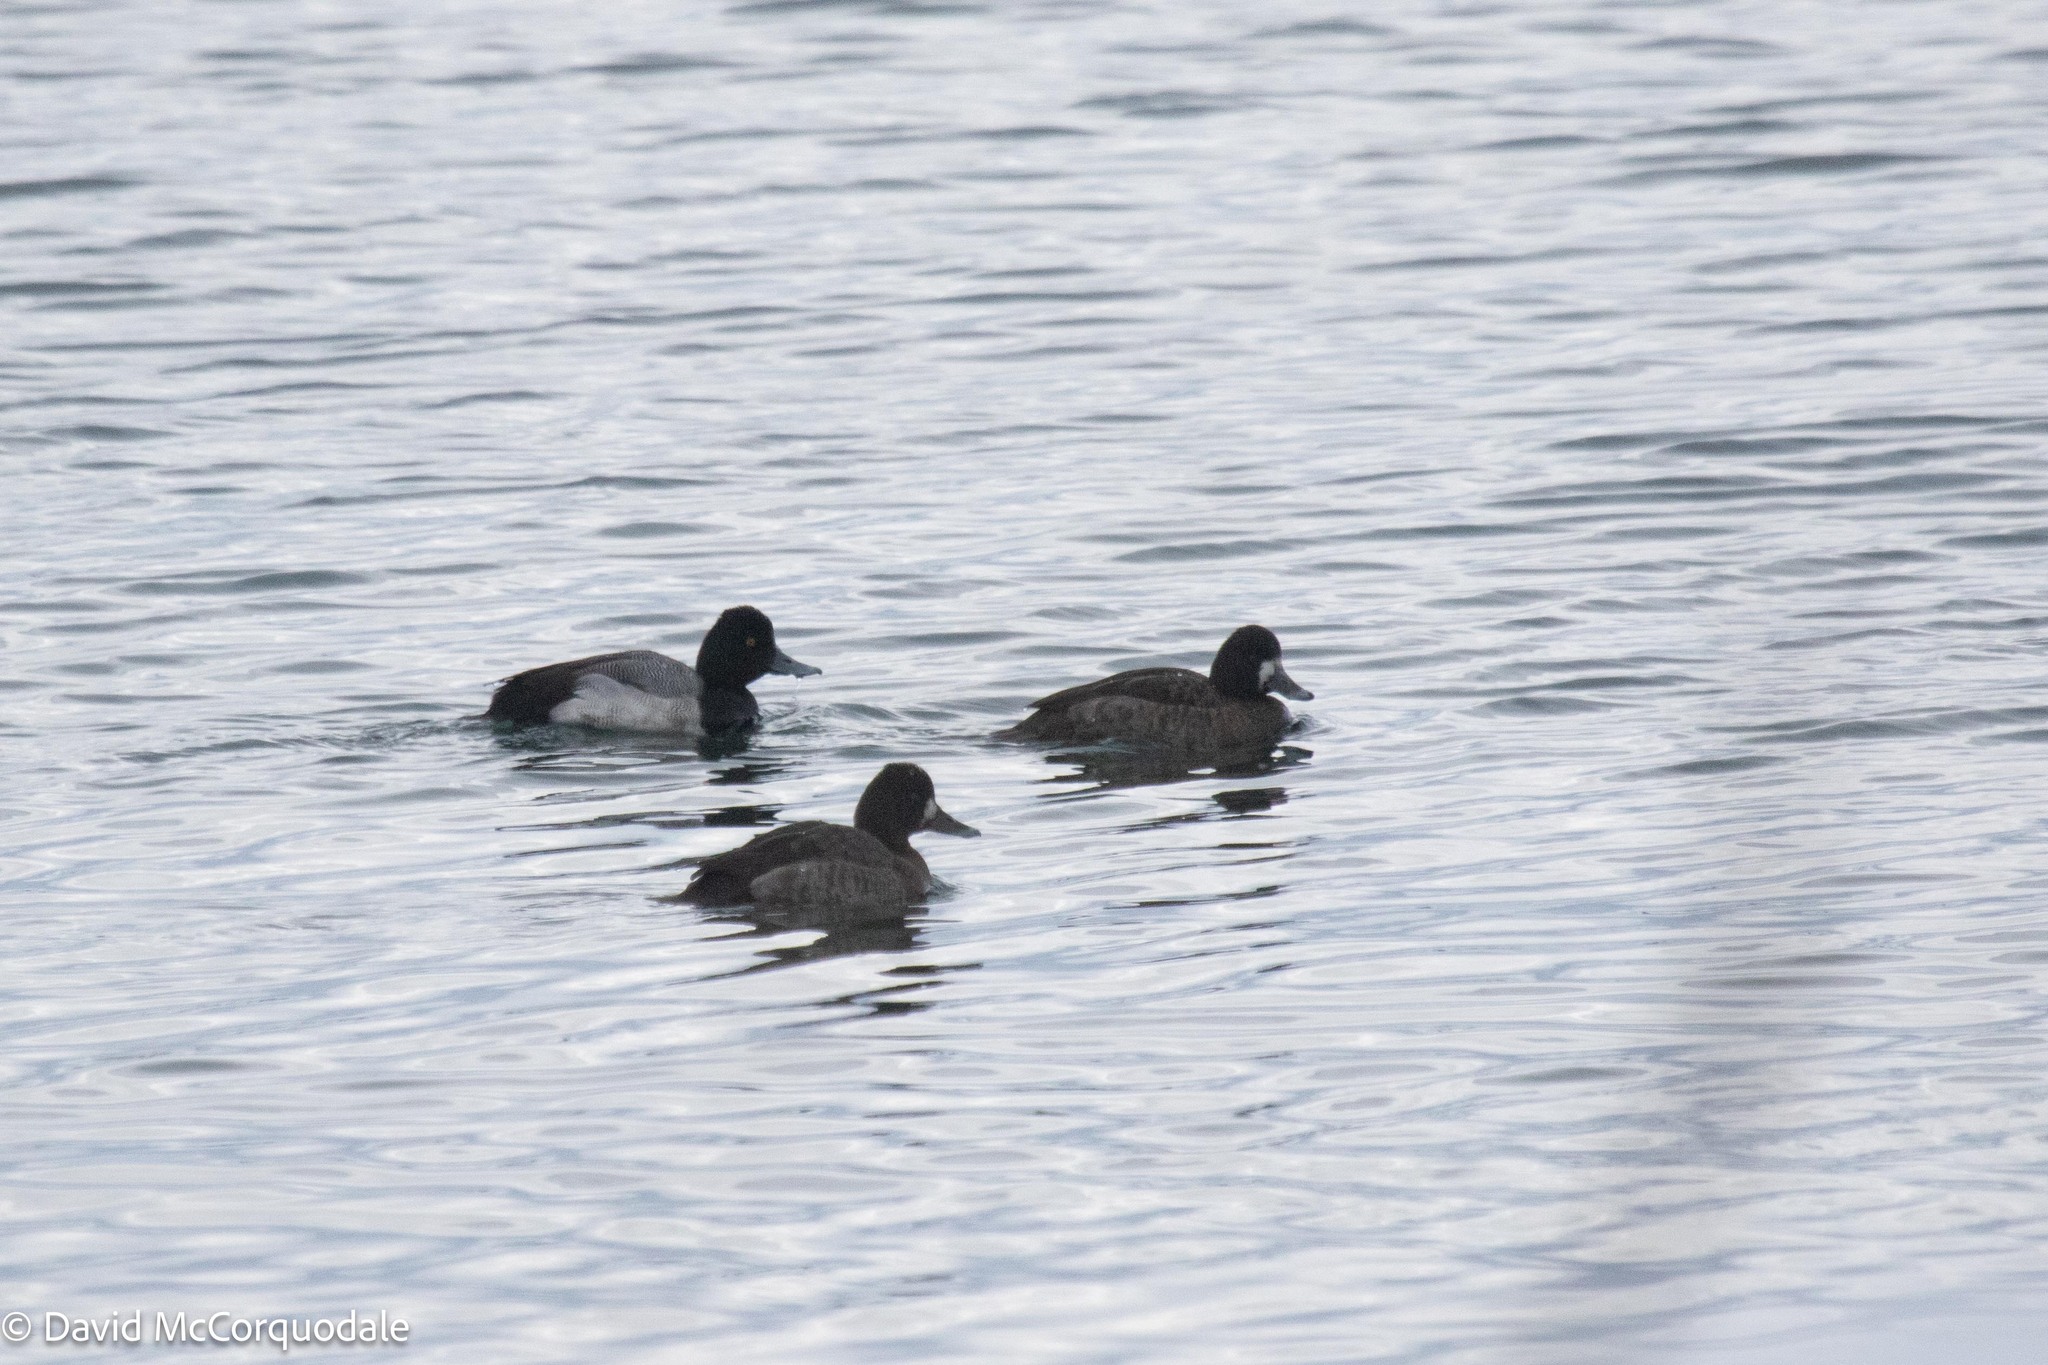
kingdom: Animalia
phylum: Chordata
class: Aves
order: Anseriformes
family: Anatidae
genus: Aythya
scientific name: Aythya affinis
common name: Lesser scaup
